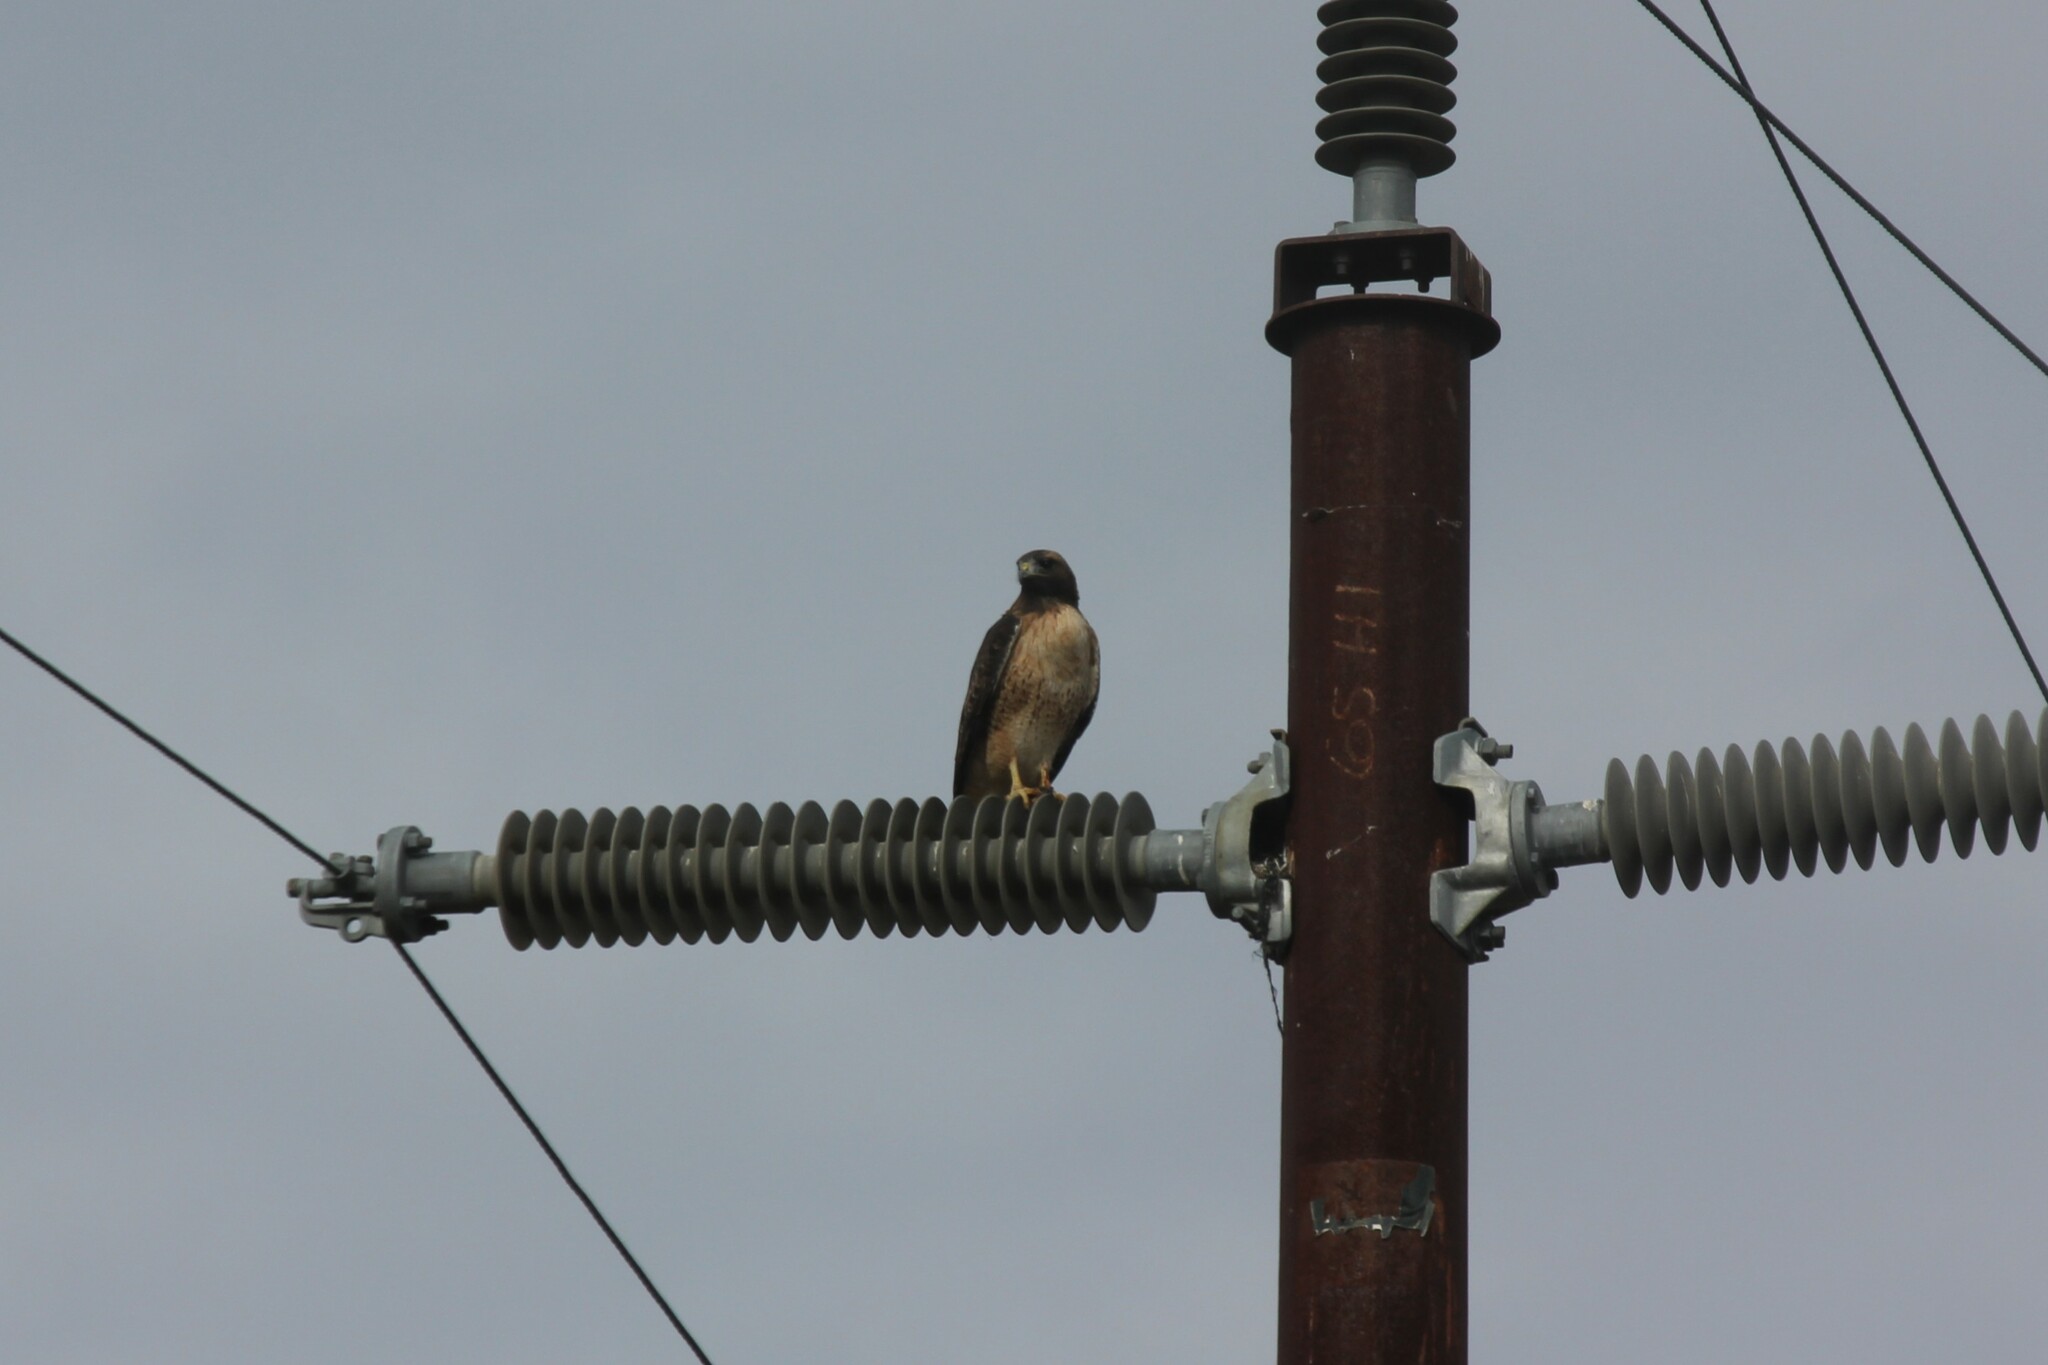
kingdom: Animalia
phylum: Chordata
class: Aves
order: Accipitriformes
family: Accipitridae
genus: Buteo
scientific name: Buteo jamaicensis
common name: Red-tailed hawk
